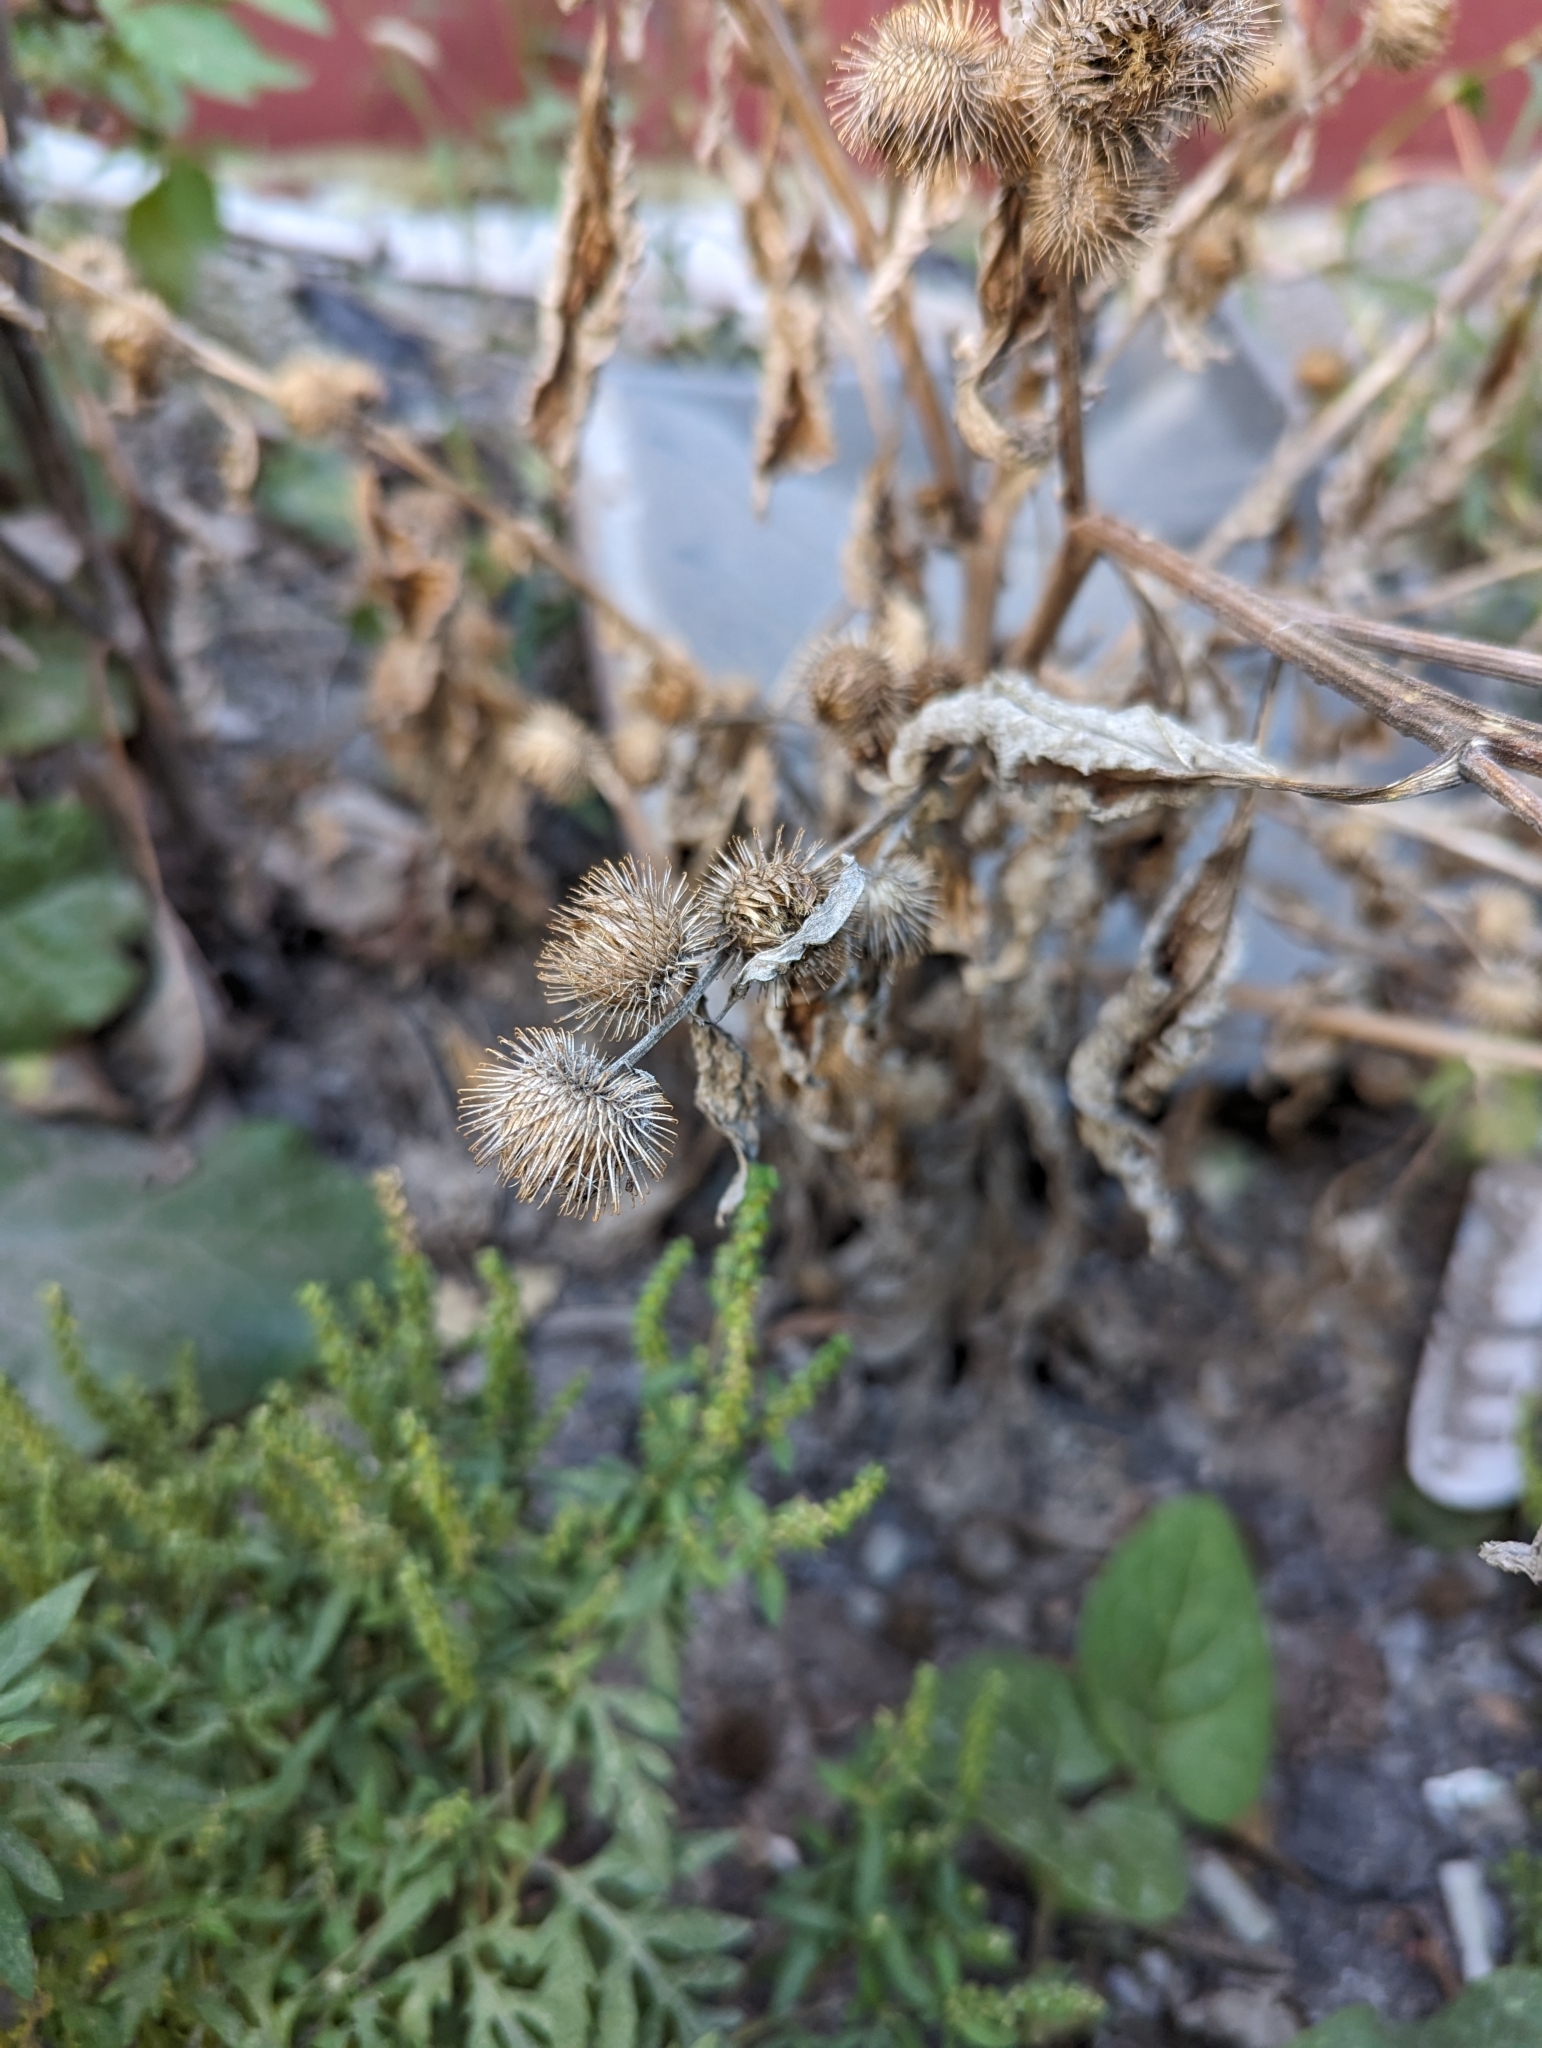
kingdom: Plantae
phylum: Tracheophyta
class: Magnoliopsida
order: Asterales
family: Asteraceae
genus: Arctium
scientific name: Arctium minus
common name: Lesser burdock
